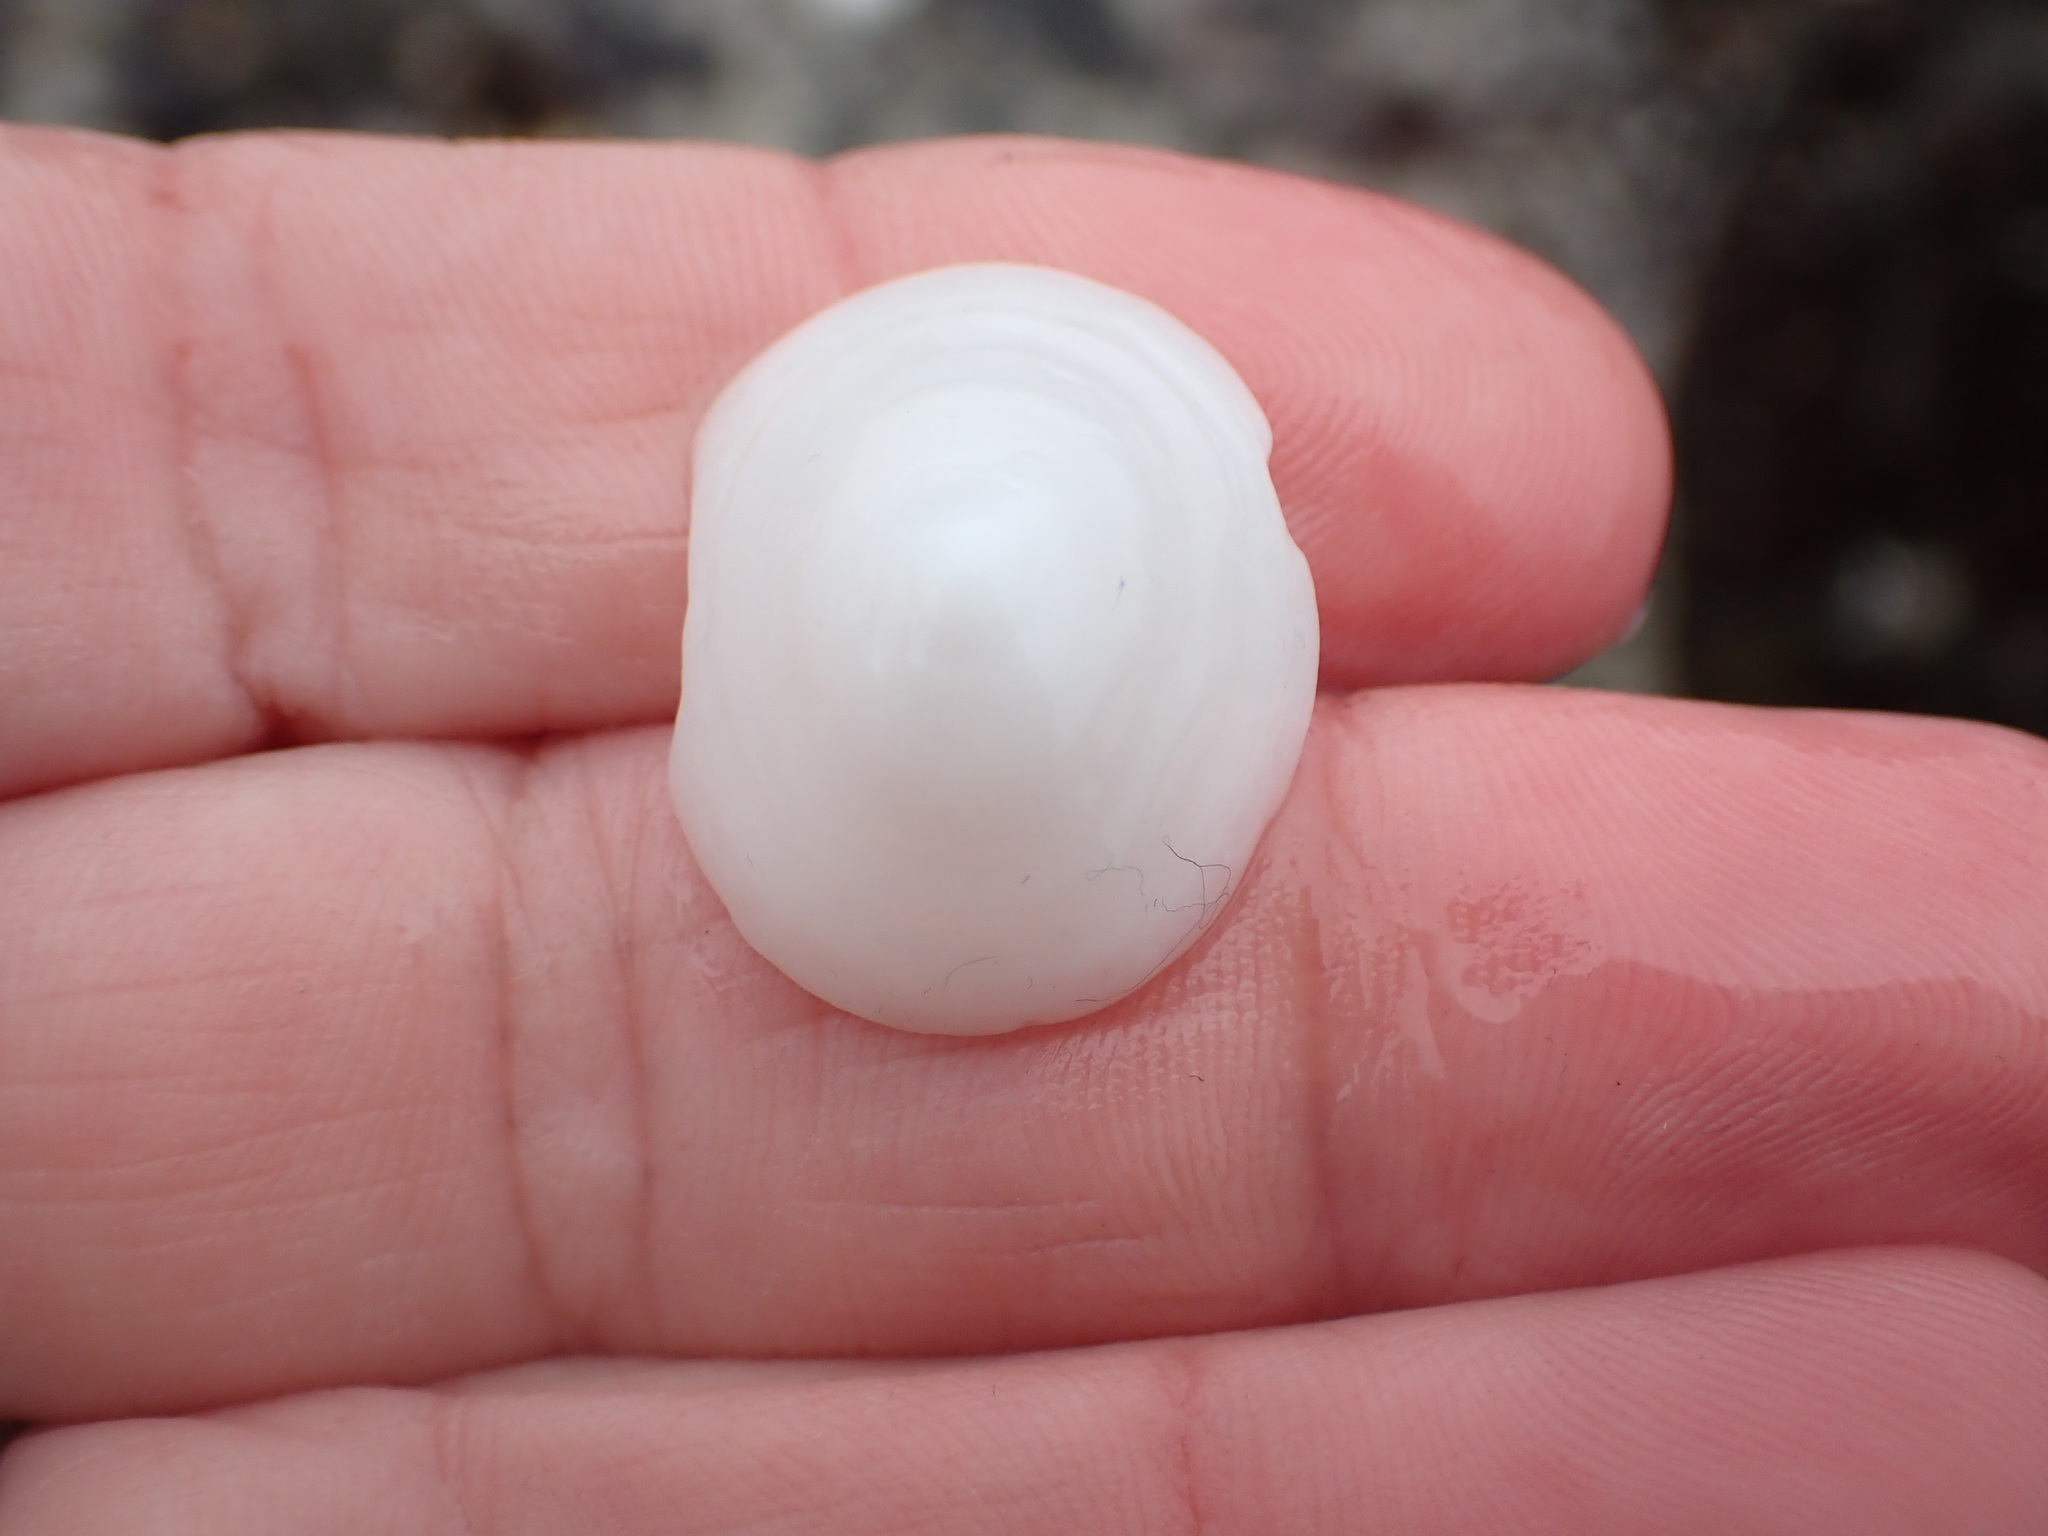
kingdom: Animalia
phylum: Mollusca
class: Gastropoda
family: Acmaeidae
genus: Acmaea
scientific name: Acmaea mitra
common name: Pacific white cap limpet
